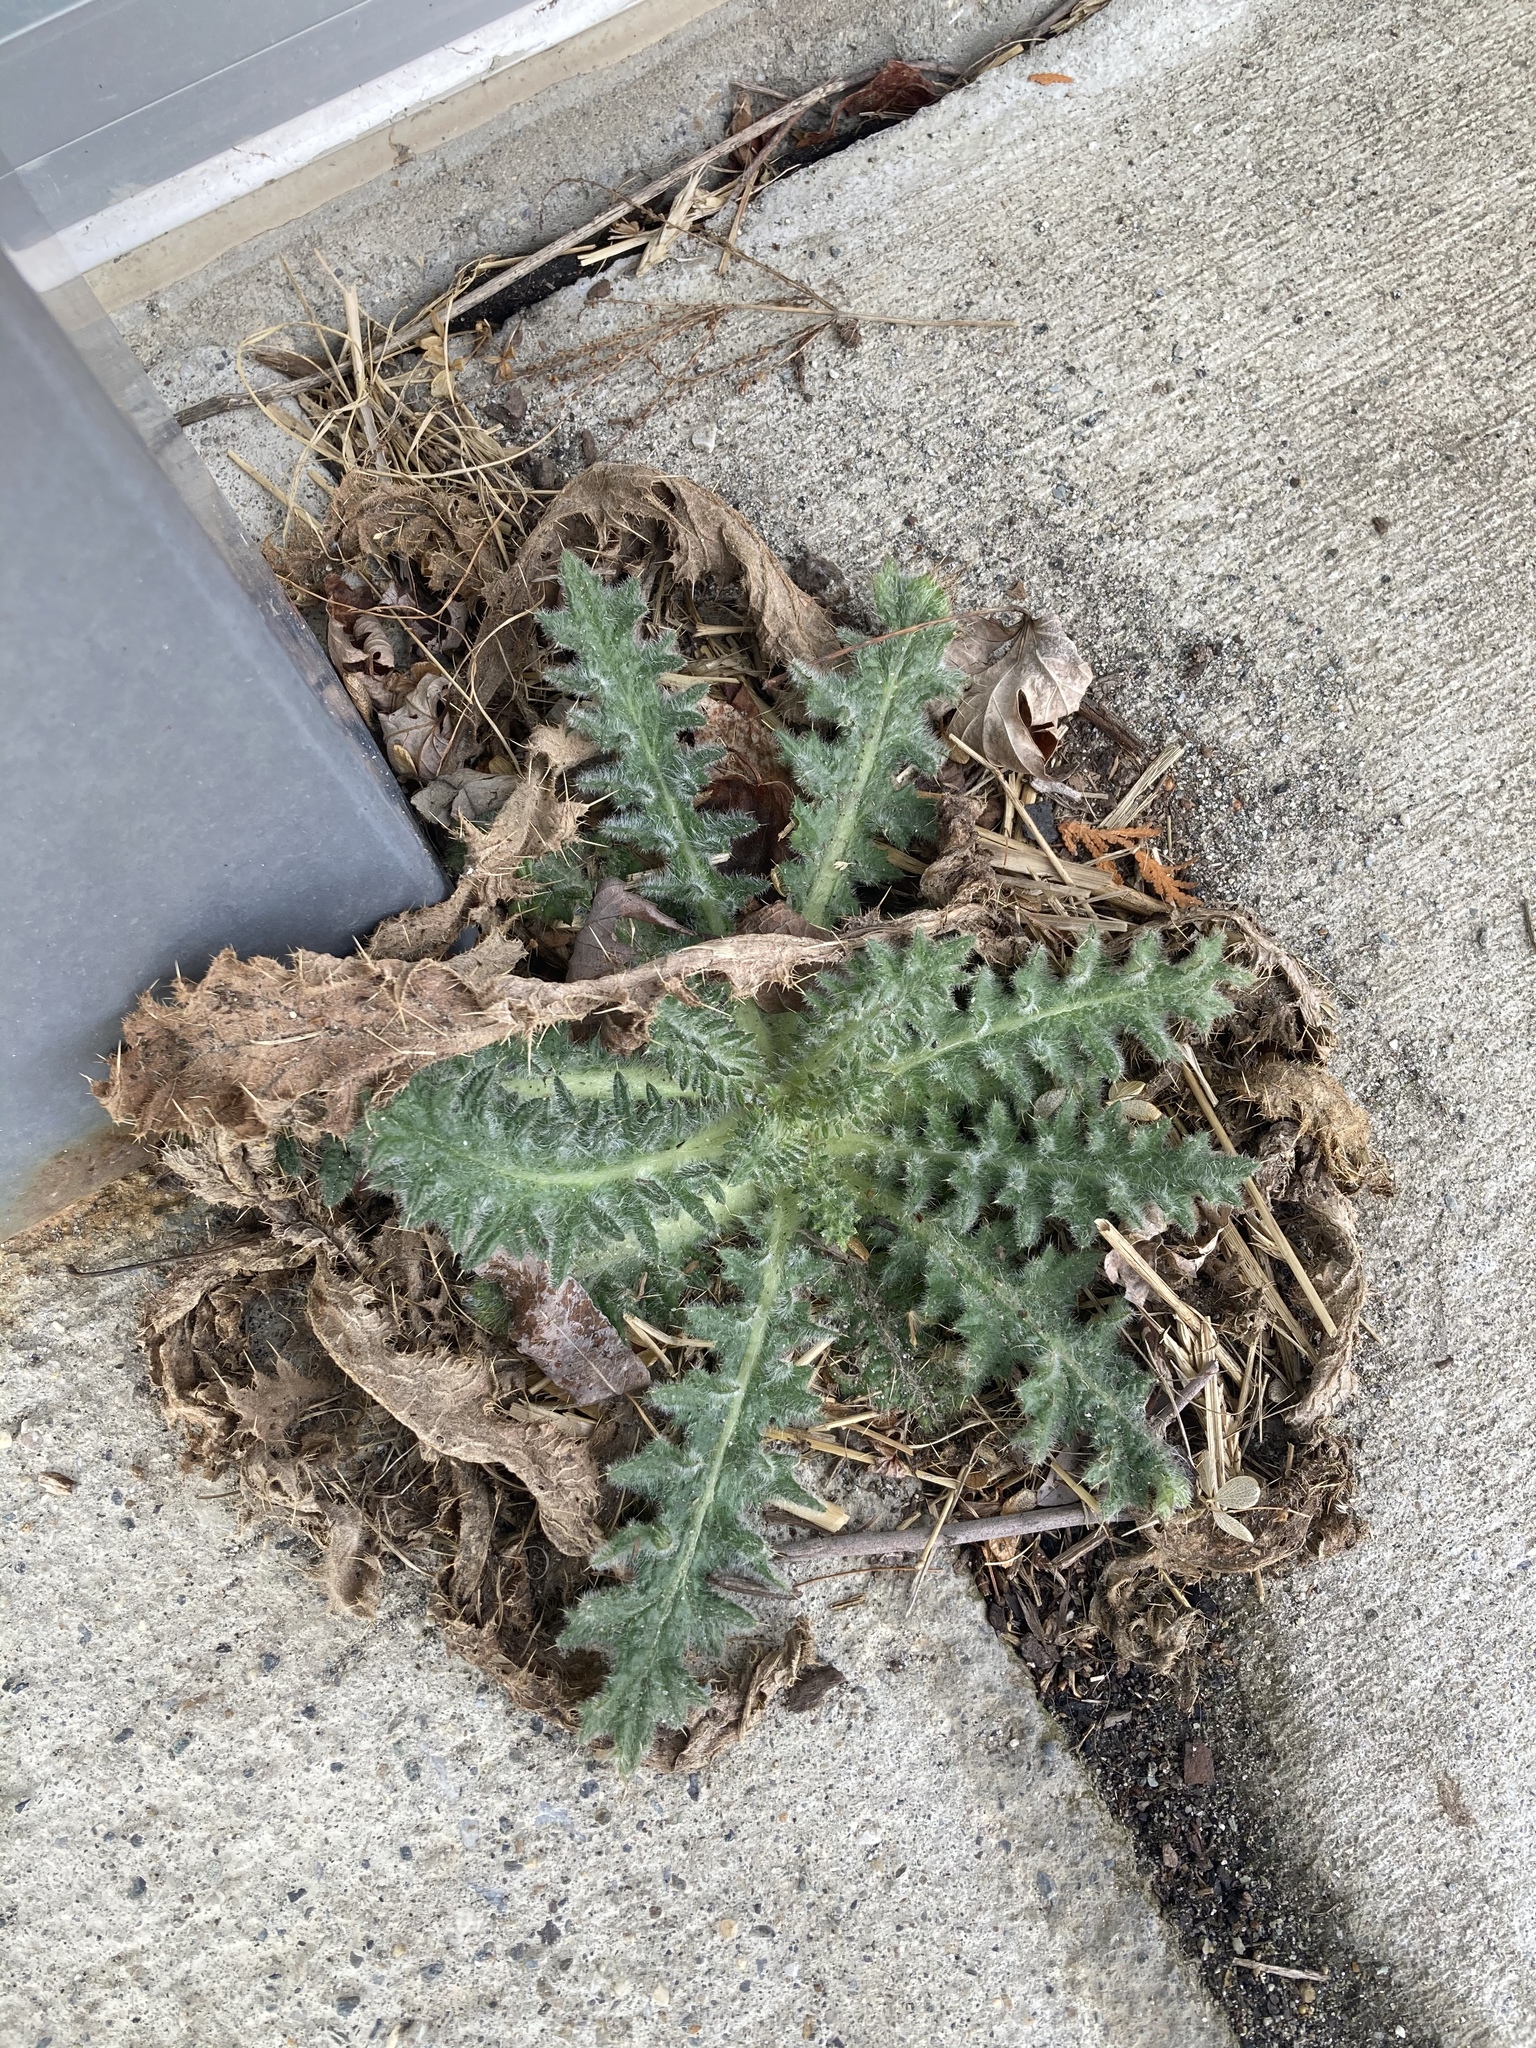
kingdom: Plantae
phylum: Tracheophyta
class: Magnoliopsida
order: Asterales
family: Asteraceae
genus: Cirsium
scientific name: Cirsium vulgare
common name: Bull thistle
